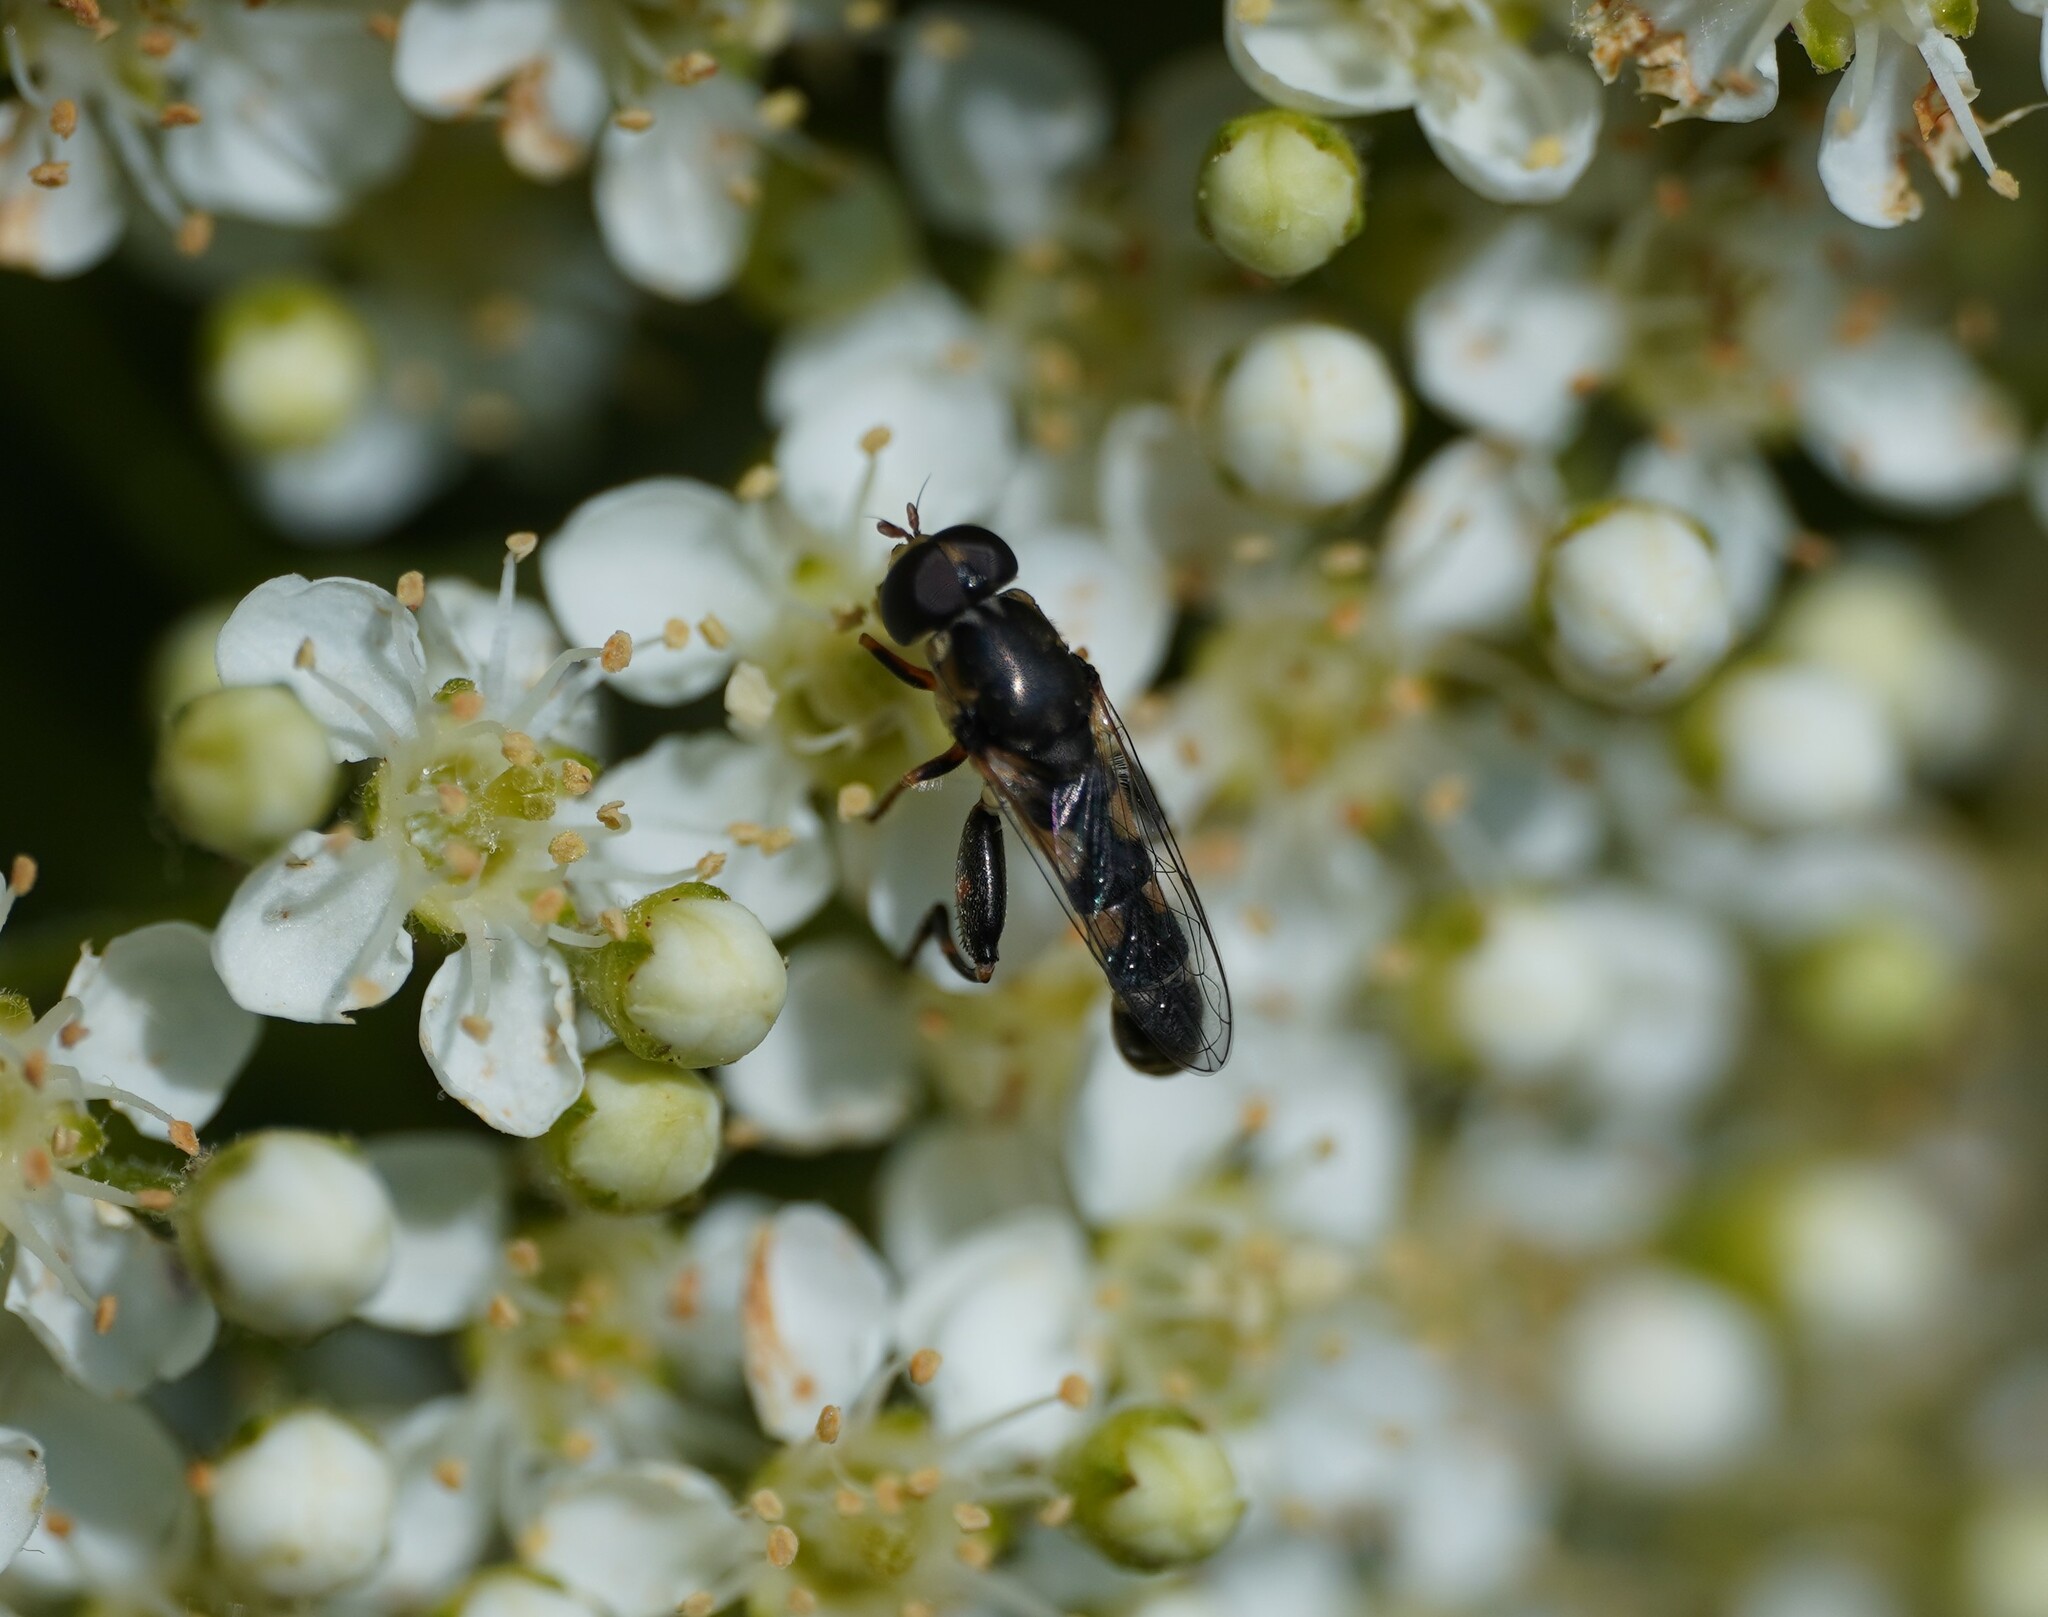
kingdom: Animalia
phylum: Arthropoda
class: Insecta
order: Diptera
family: Syrphidae
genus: Syritta
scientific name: Syritta pipiens
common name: Hover fly
